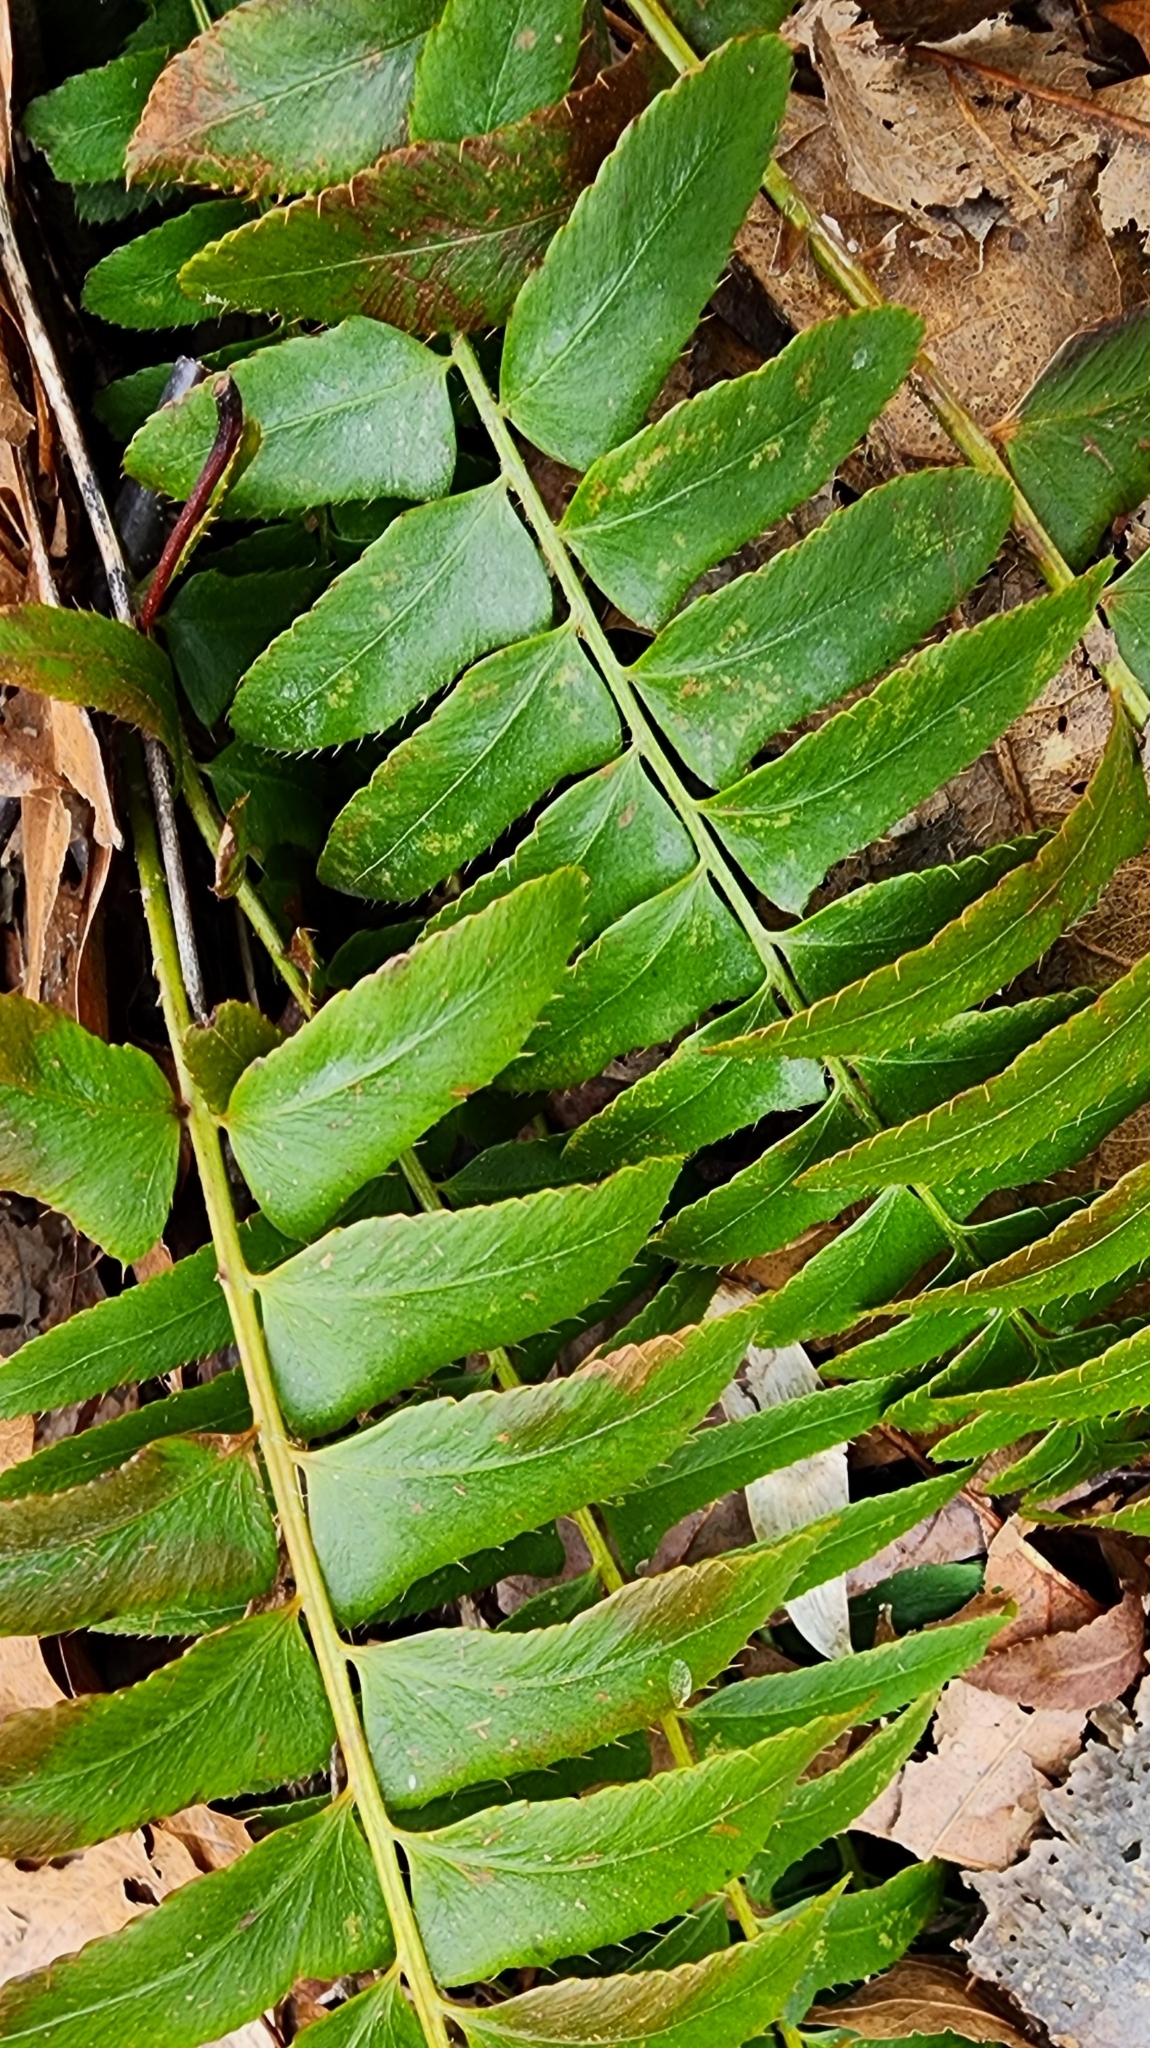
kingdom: Plantae
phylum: Tracheophyta
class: Polypodiopsida
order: Polypodiales
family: Dryopteridaceae
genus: Polystichum
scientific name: Polystichum acrostichoides
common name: Christmas fern
